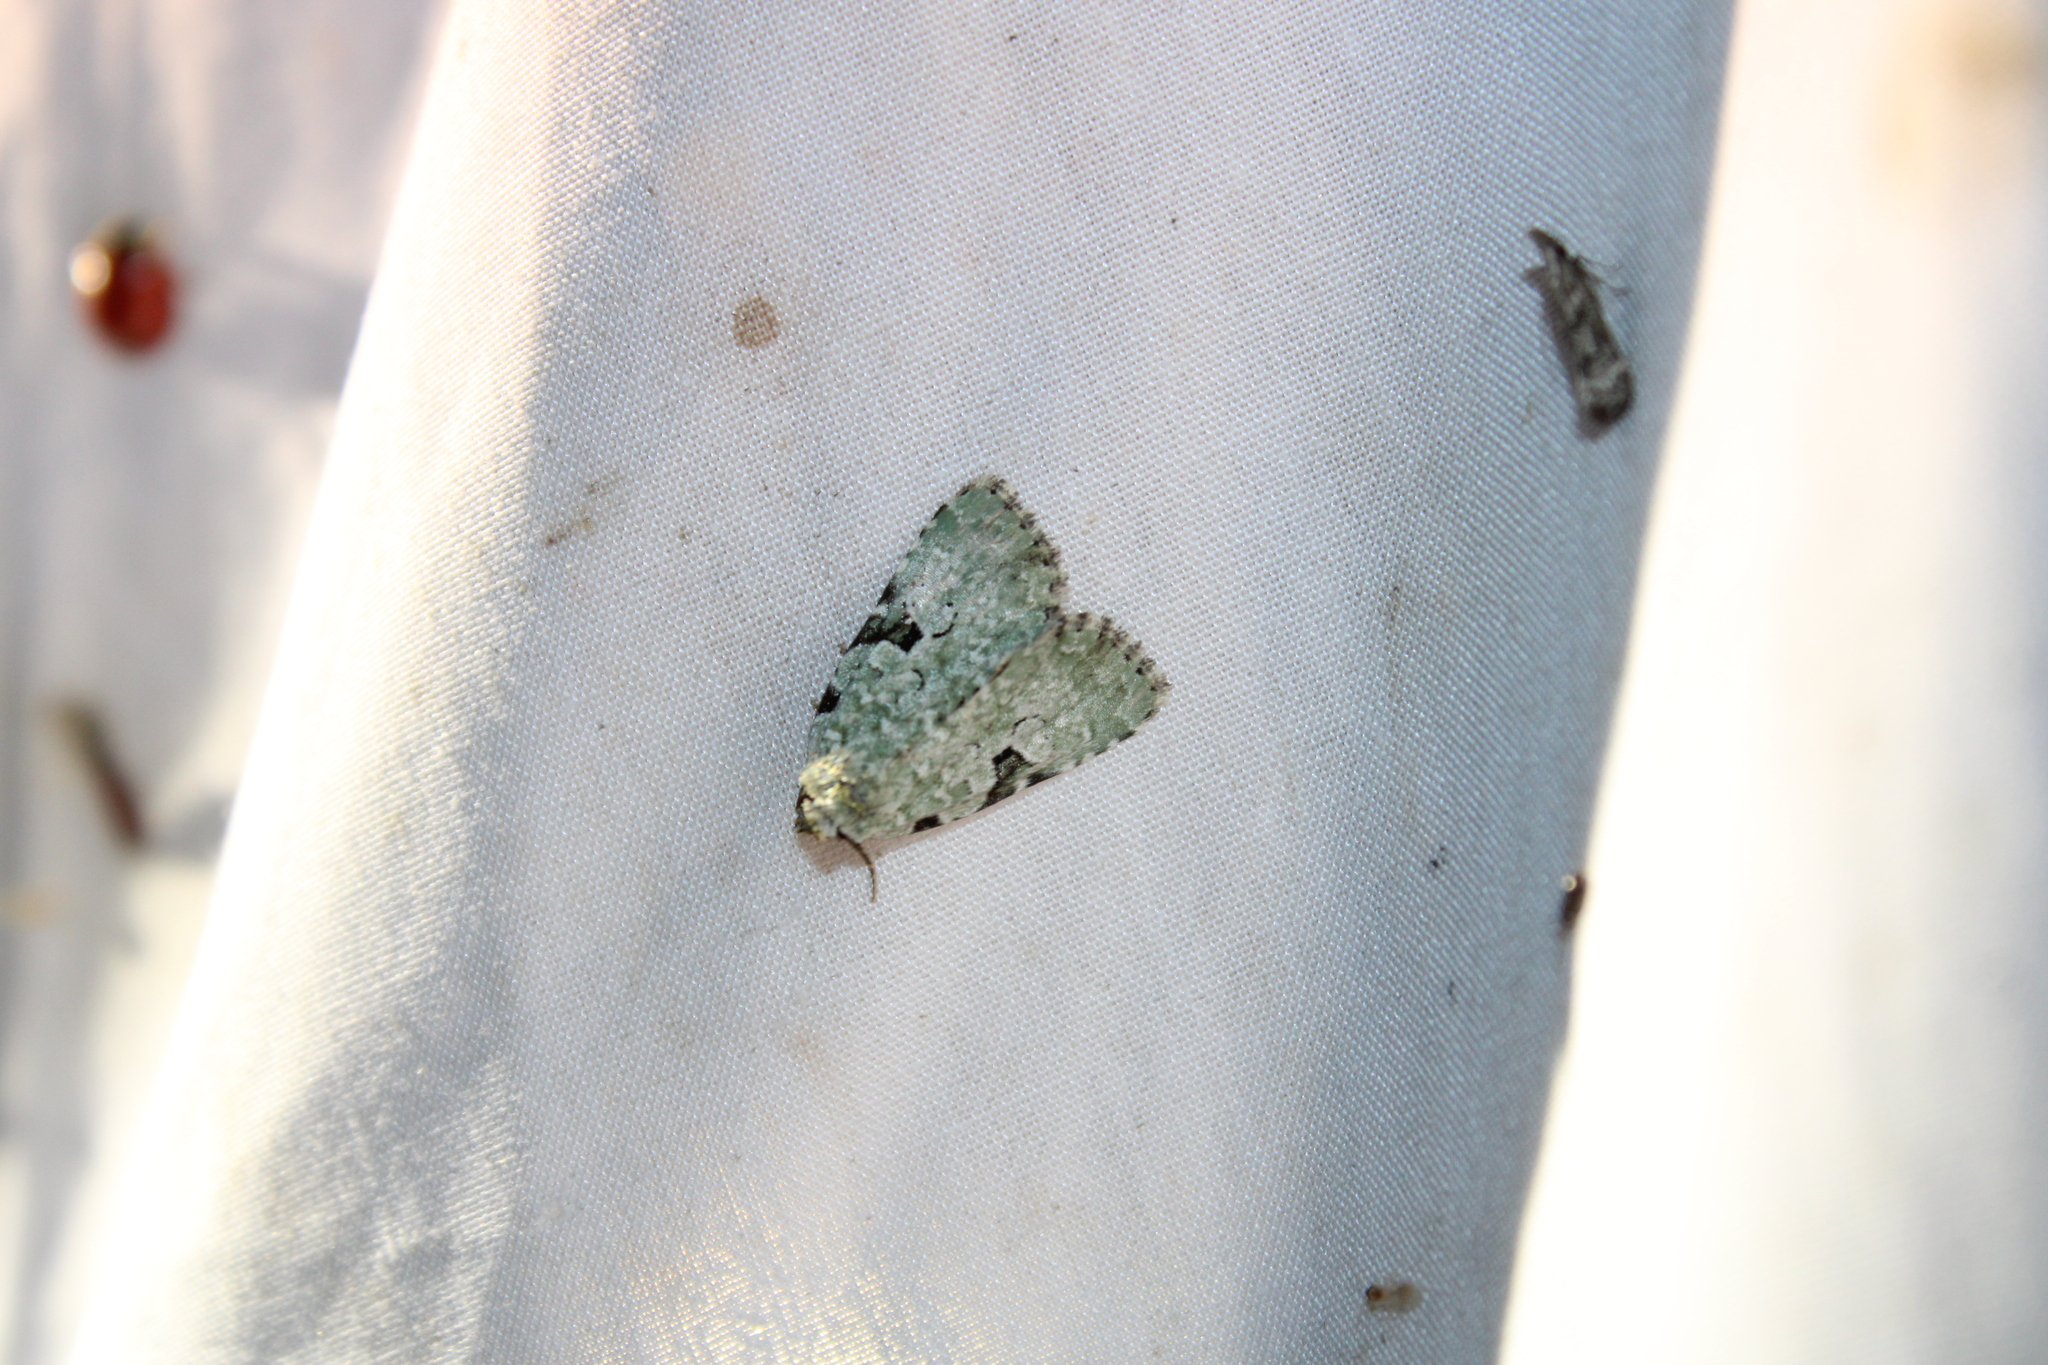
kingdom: Animalia
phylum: Arthropoda
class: Insecta
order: Lepidoptera
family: Noctuidae
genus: Leuconycta
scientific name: Leuconycta diphteroides
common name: Green leuconycta moth
